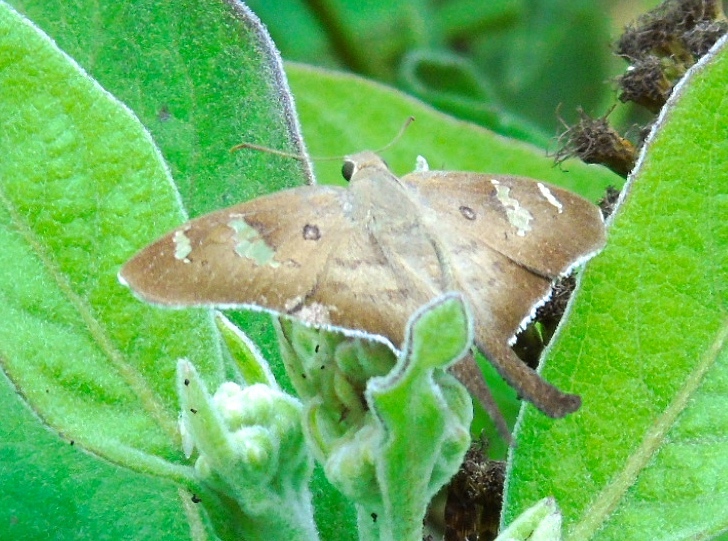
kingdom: Animalia
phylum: Arthropoda
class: Insecta
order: Lepidoptera
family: Hesperiidae
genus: Ectomis
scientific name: Ectomis
